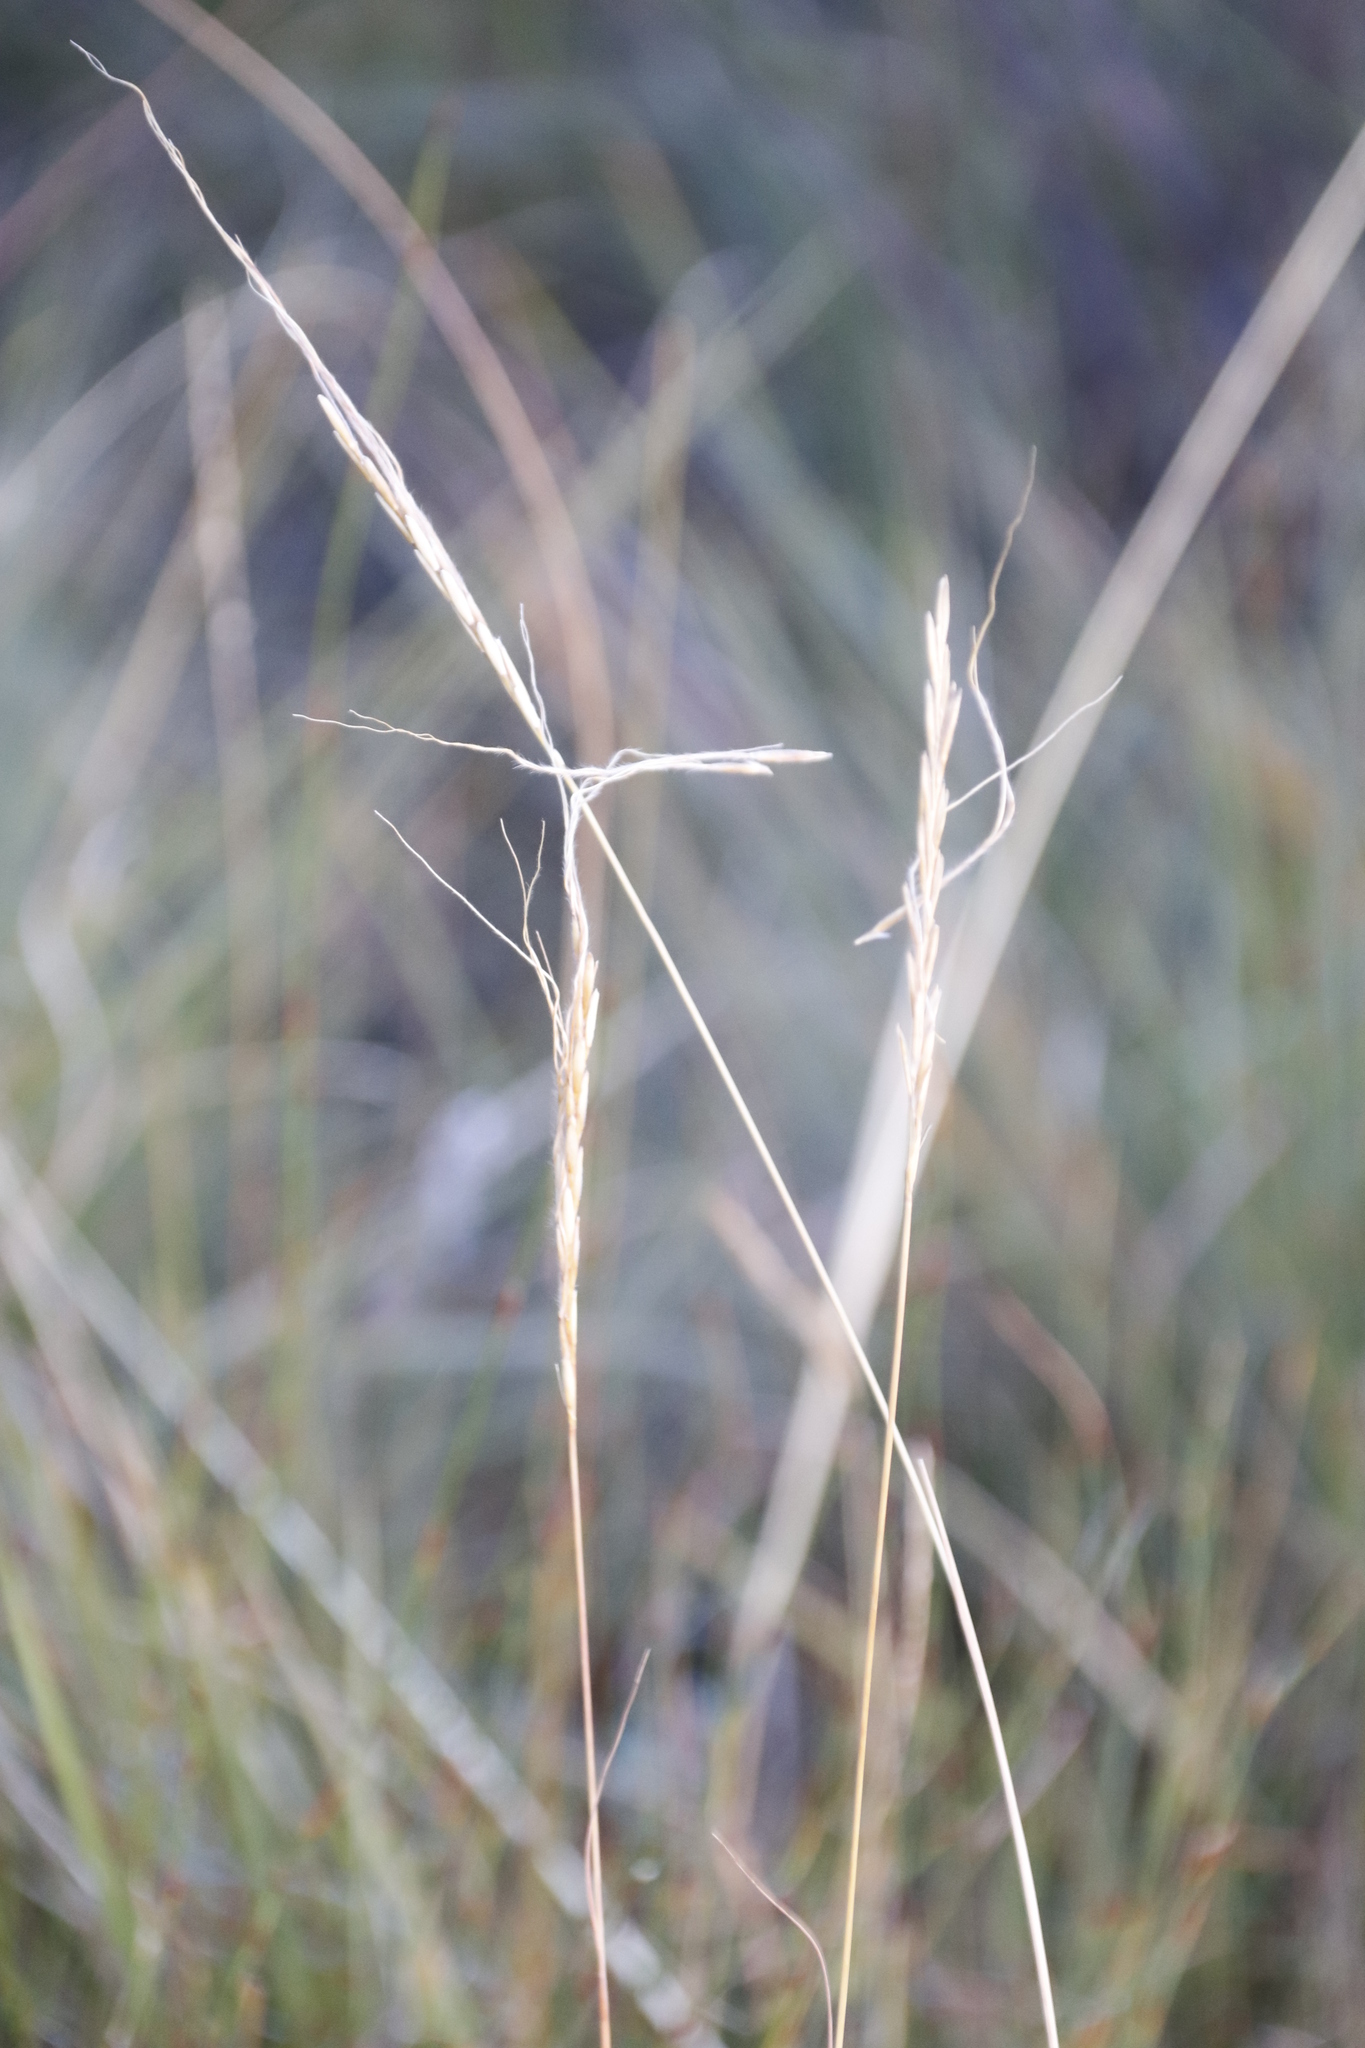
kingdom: Plantae
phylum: Tracheophyta
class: Liliopsida
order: Poales
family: Poaceae
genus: Heteropogon
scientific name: Heteropogon contortus
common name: Tanglehead
